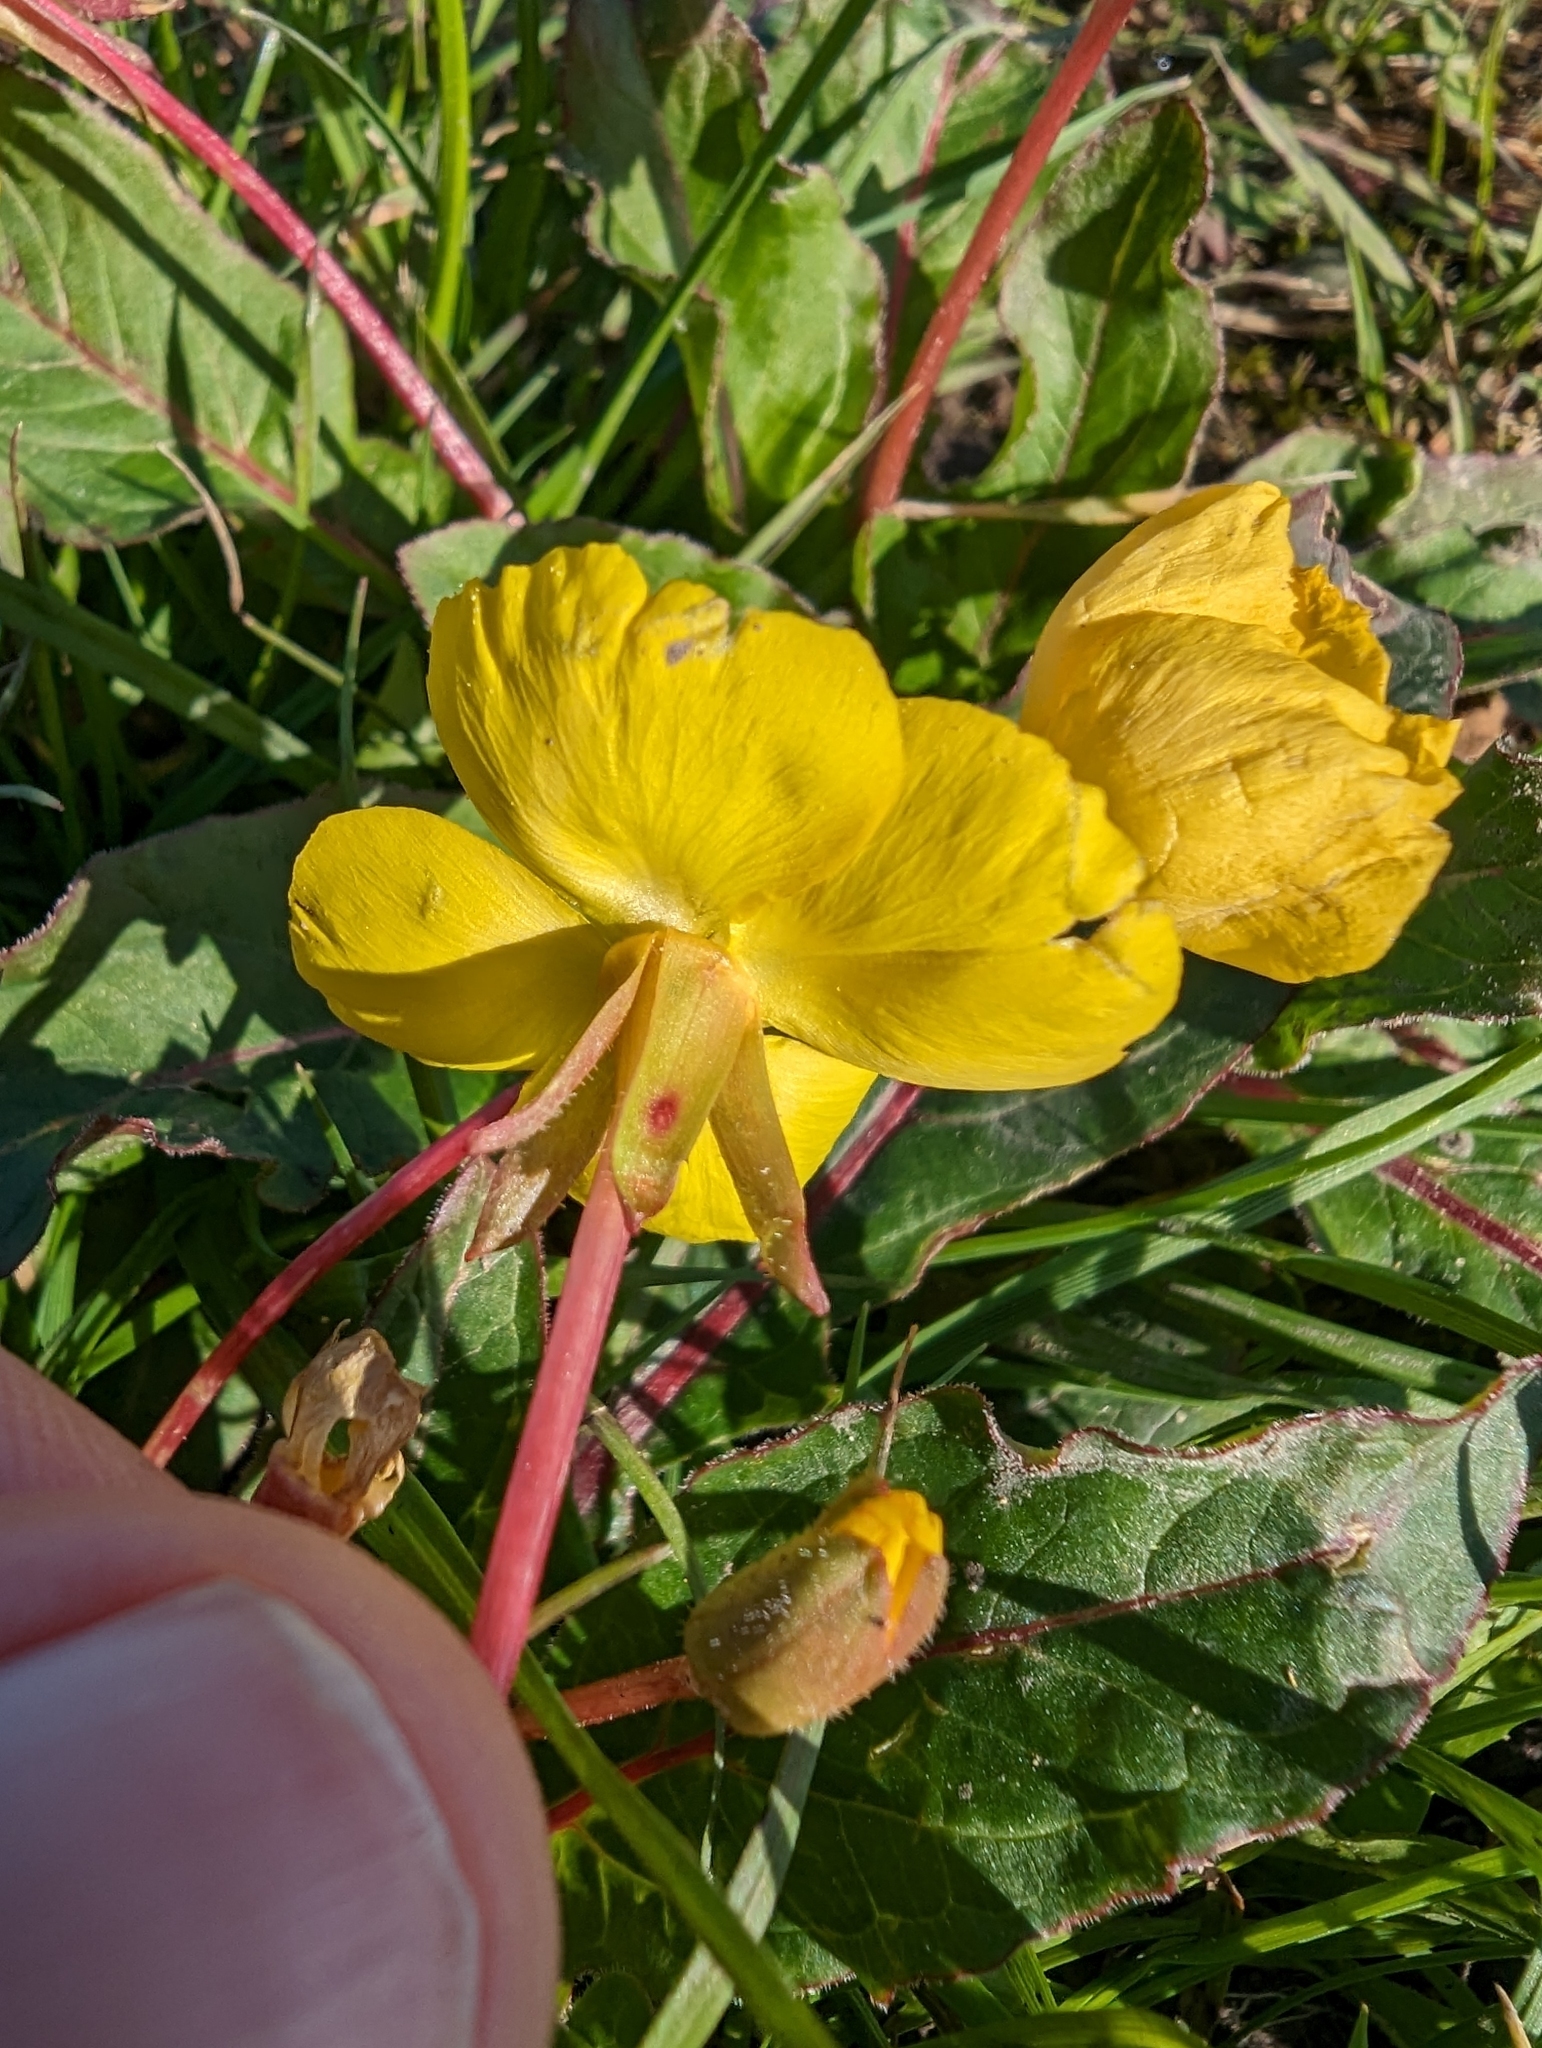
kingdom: Plantae
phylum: Tracheophyta
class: Magnoliopsida
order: Myrtales
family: Onagraceae
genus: Taraxia
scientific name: Taraxia ovata
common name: Goldeneggs
